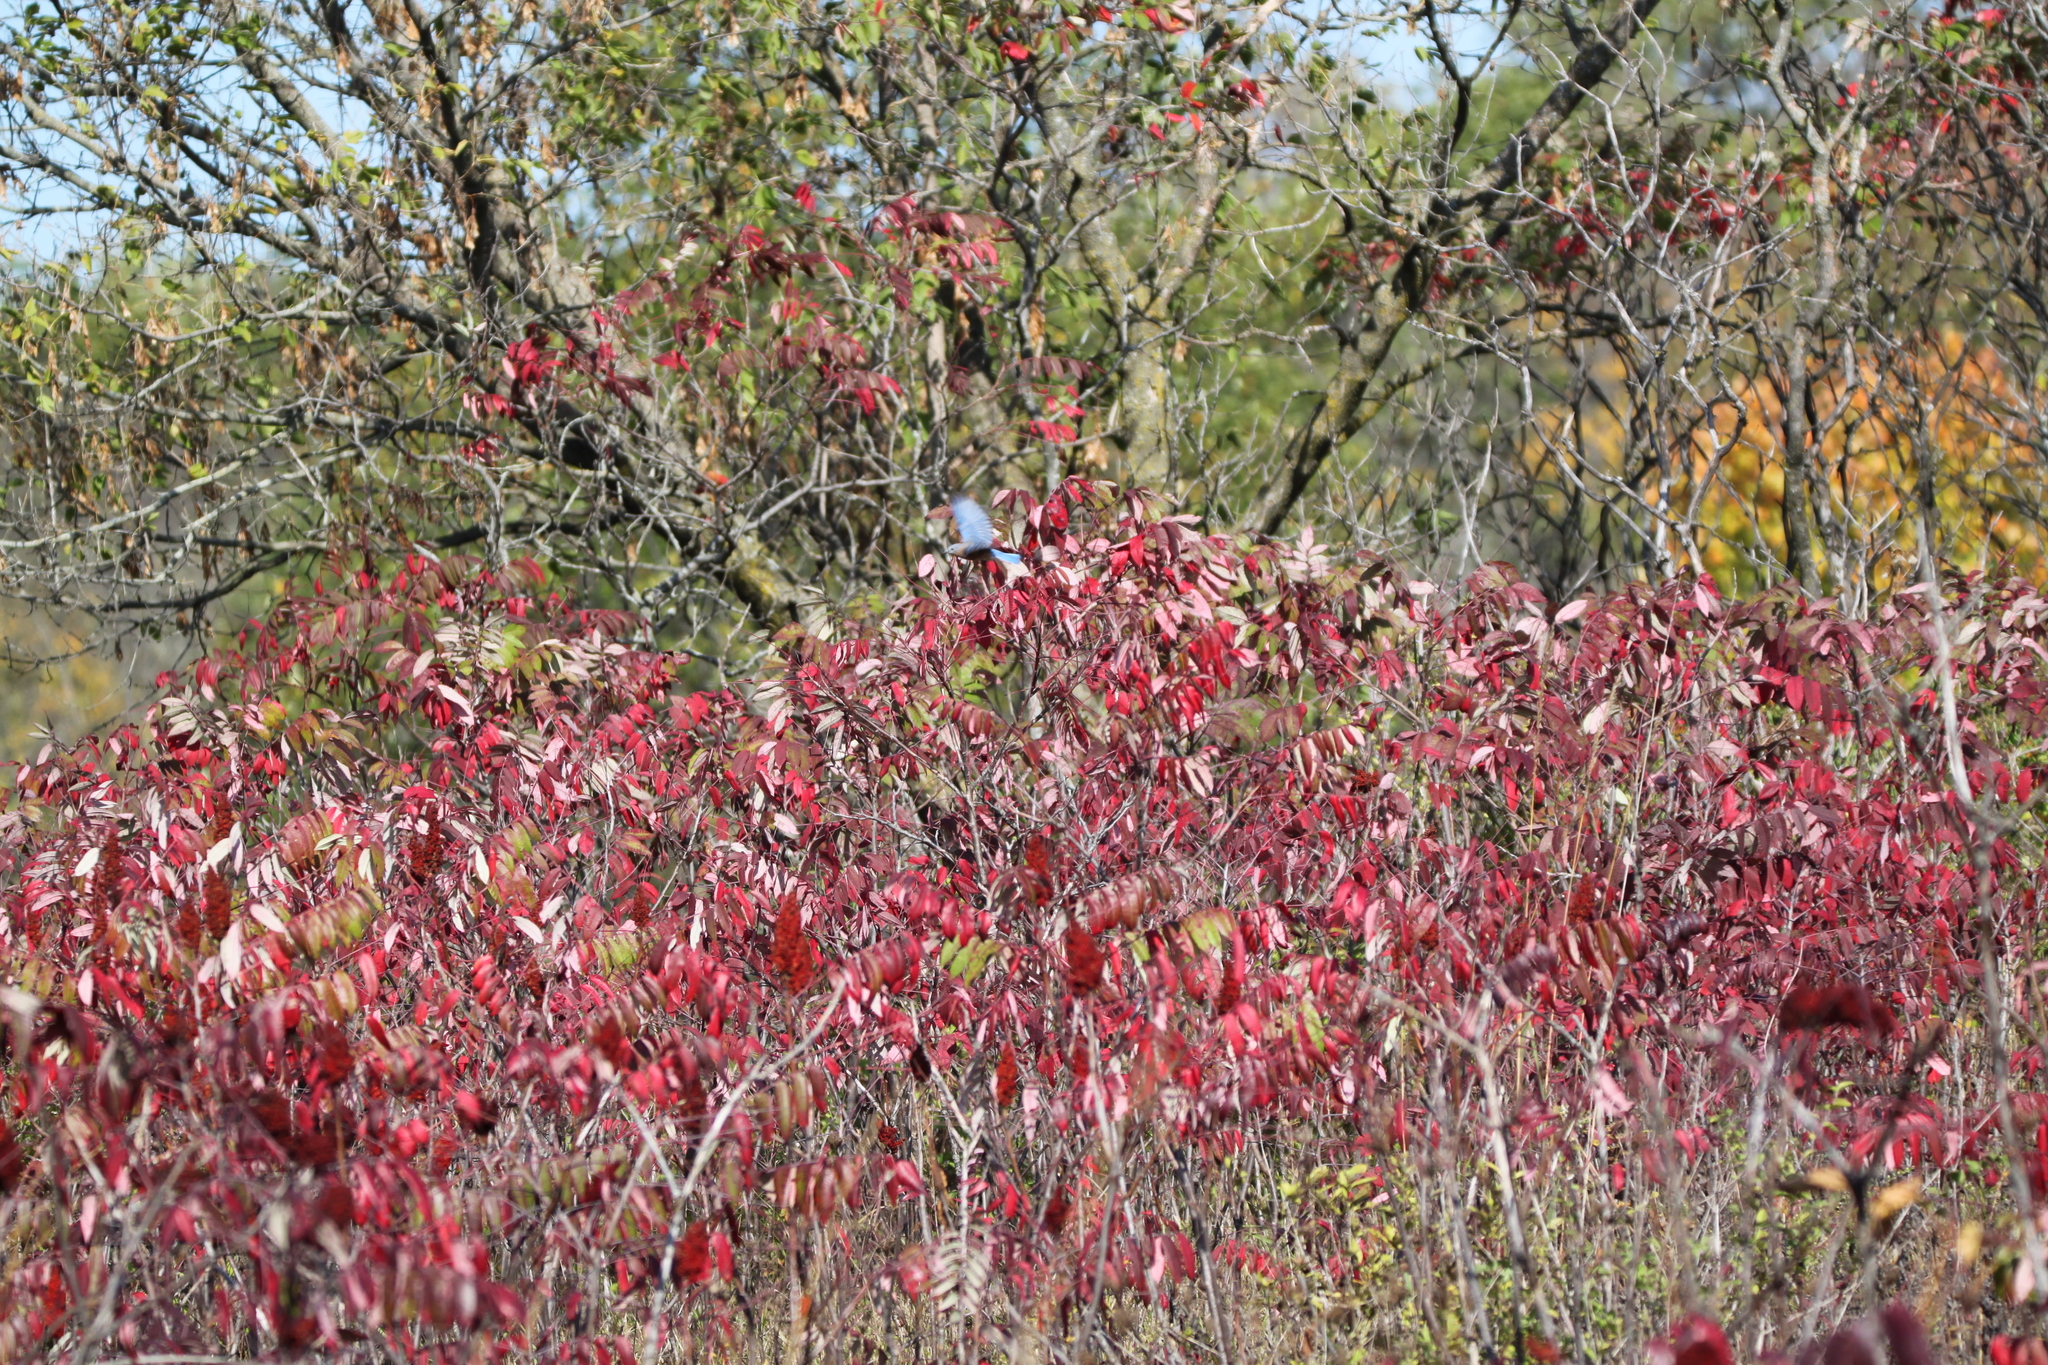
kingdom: Animalia
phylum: Chordata
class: Aves
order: Passeriformes
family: Turdidae
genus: Sialia
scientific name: Sialia sialis
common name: Eastern bluebird
